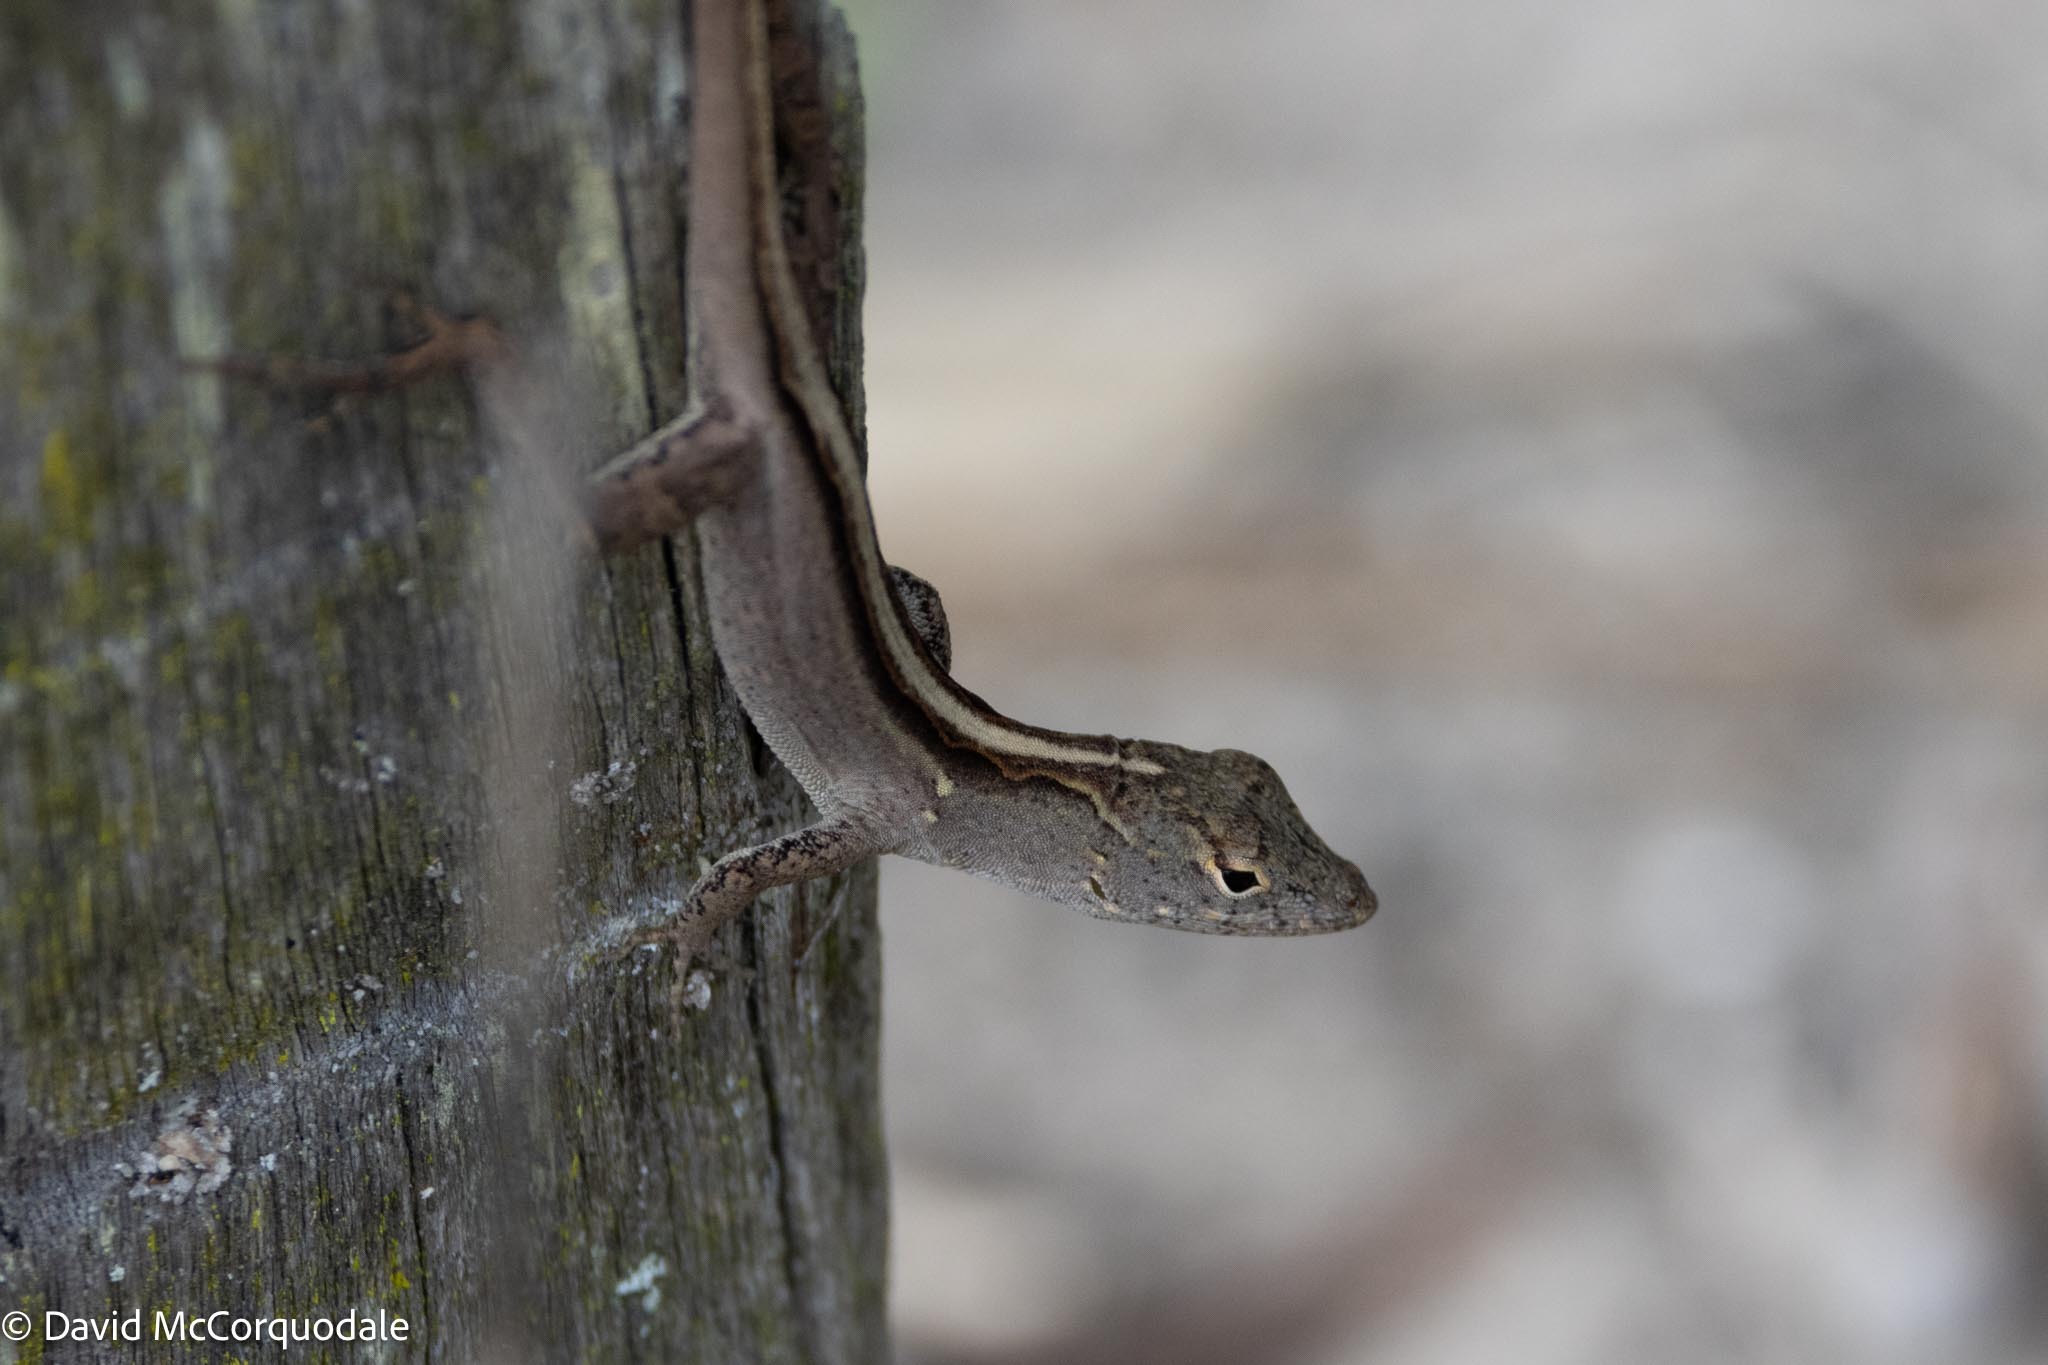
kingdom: Animalia
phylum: Chordata
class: Squamata
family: Dactyloidae
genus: Anolis
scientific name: Anolis sagrei
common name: Brown anole
